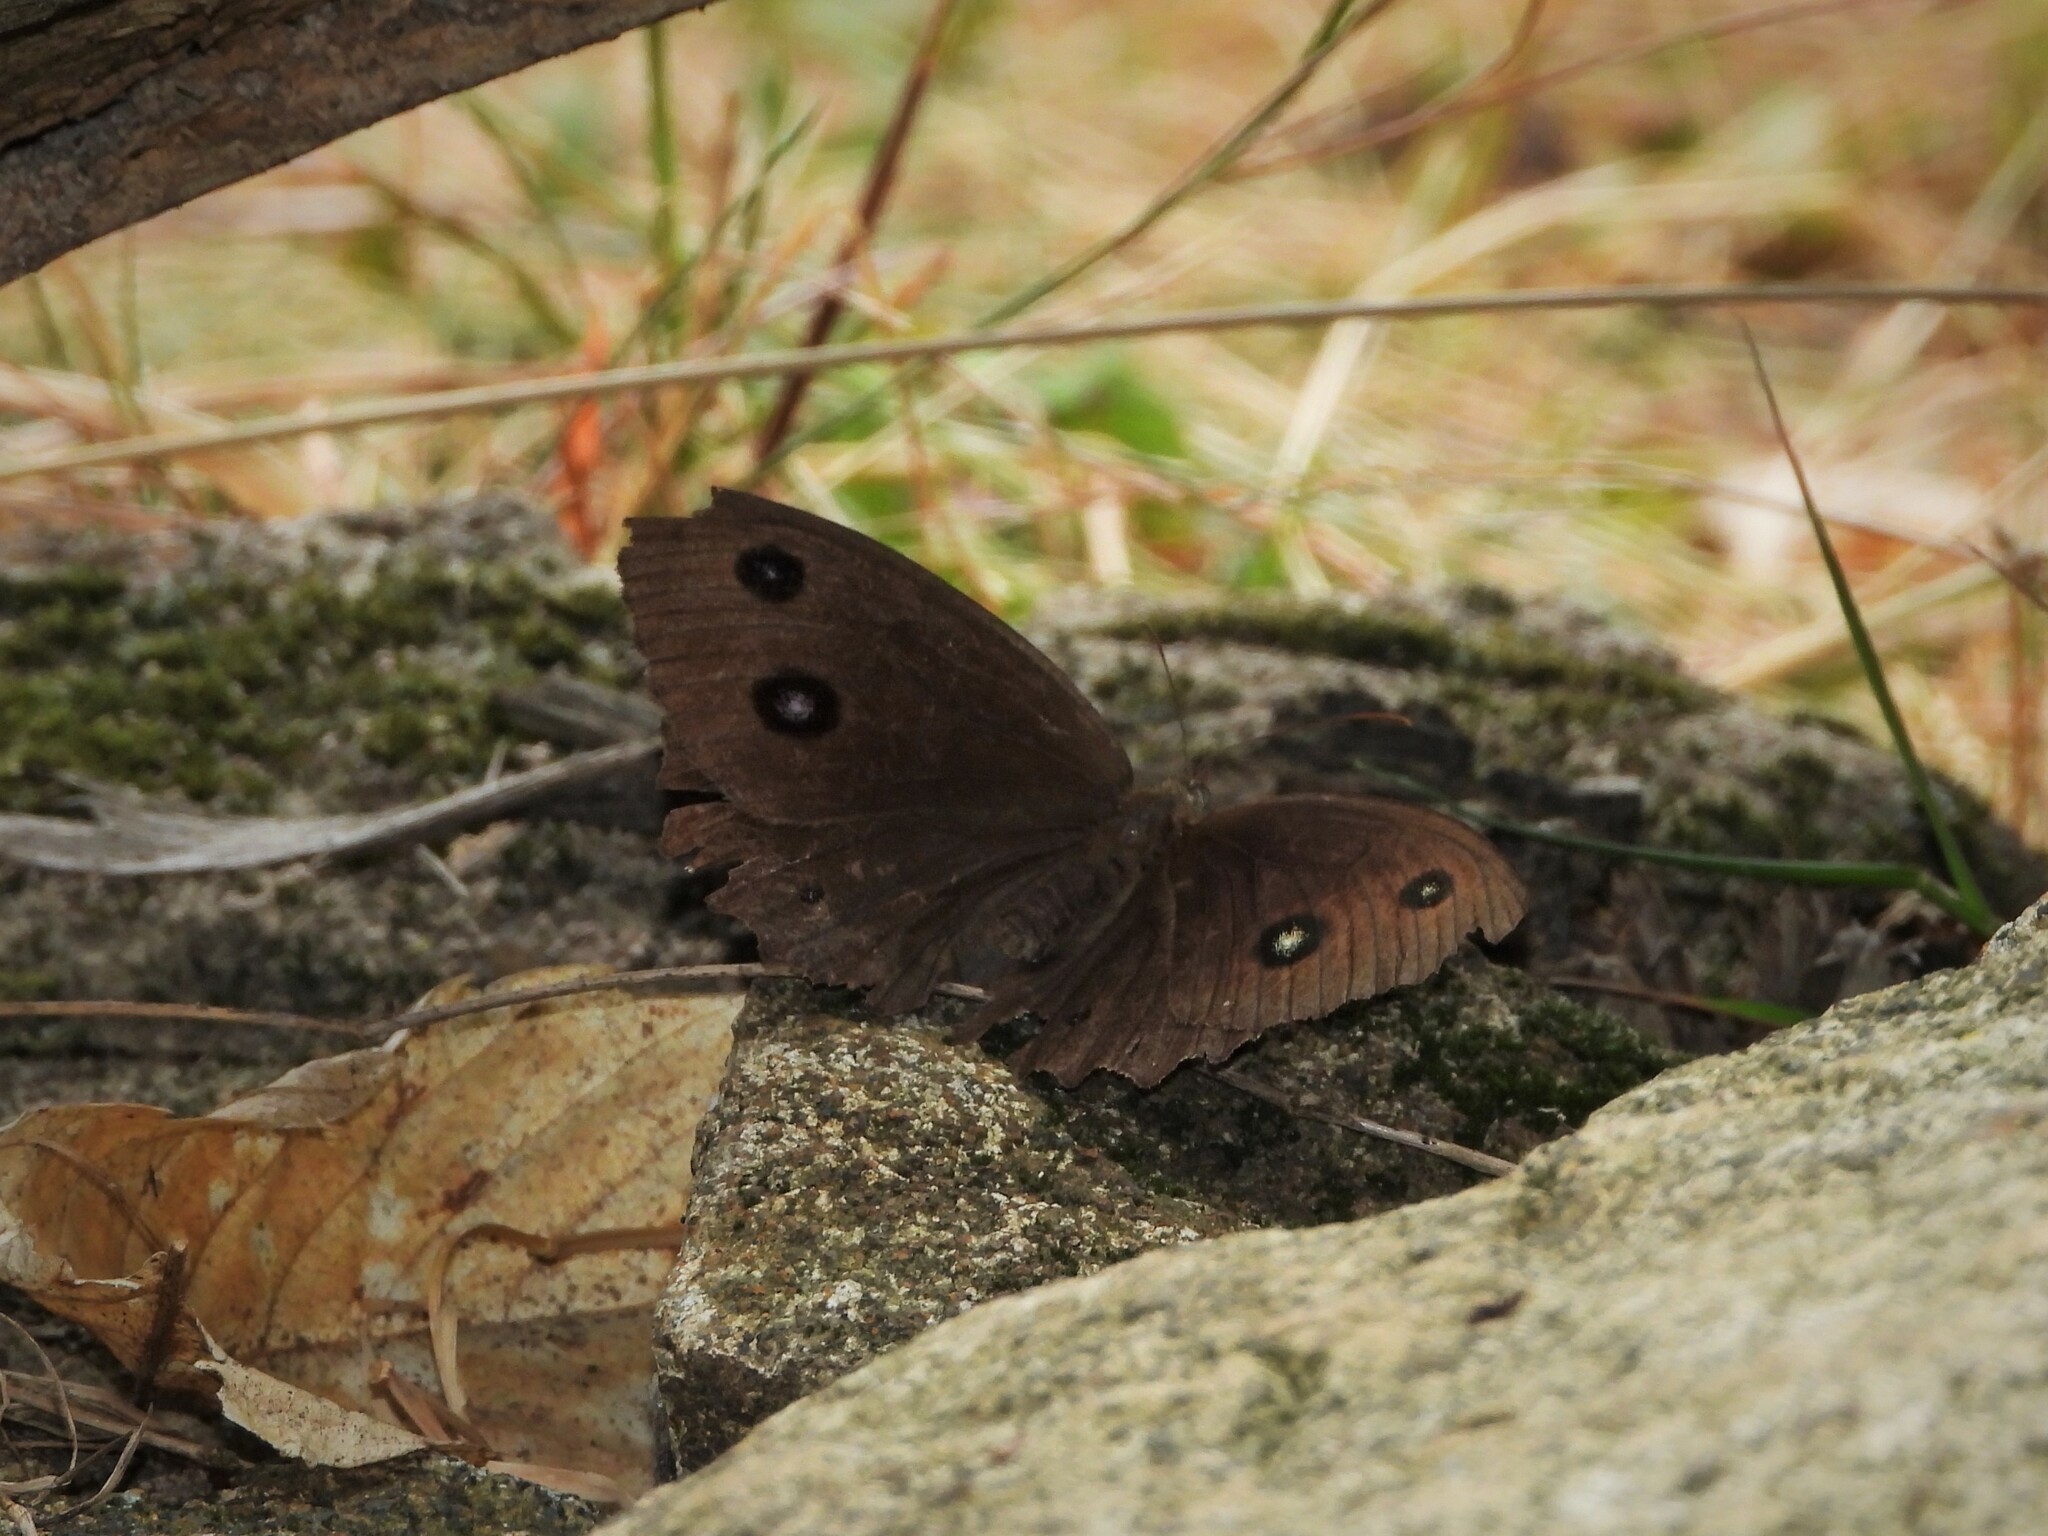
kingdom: Animalia
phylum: Arthropoda
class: Insecta
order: Lepidoptera
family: Nymphalidae
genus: Minois
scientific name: Minois dryas
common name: Dryad
